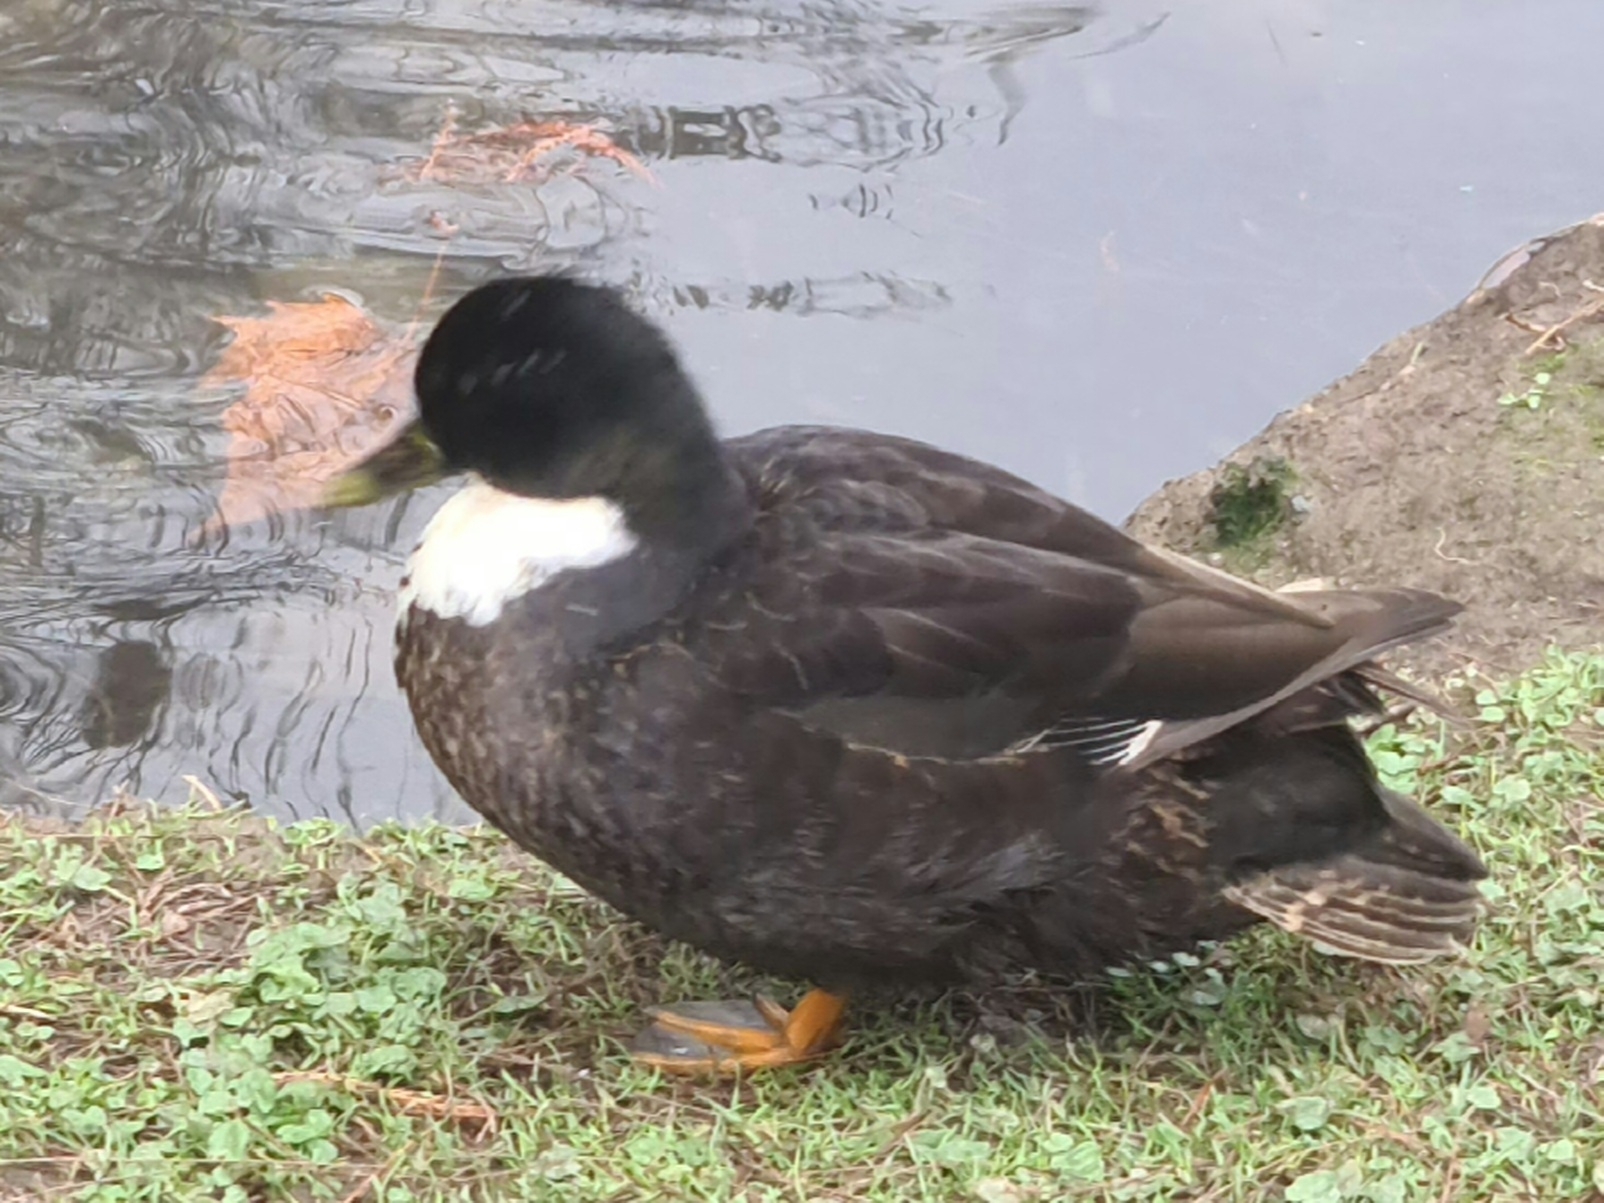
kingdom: Animalia
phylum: Chordata
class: Aves
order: Anseriformes
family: Anatidae
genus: Anas
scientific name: Anas platyrhynchos
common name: Mallard
